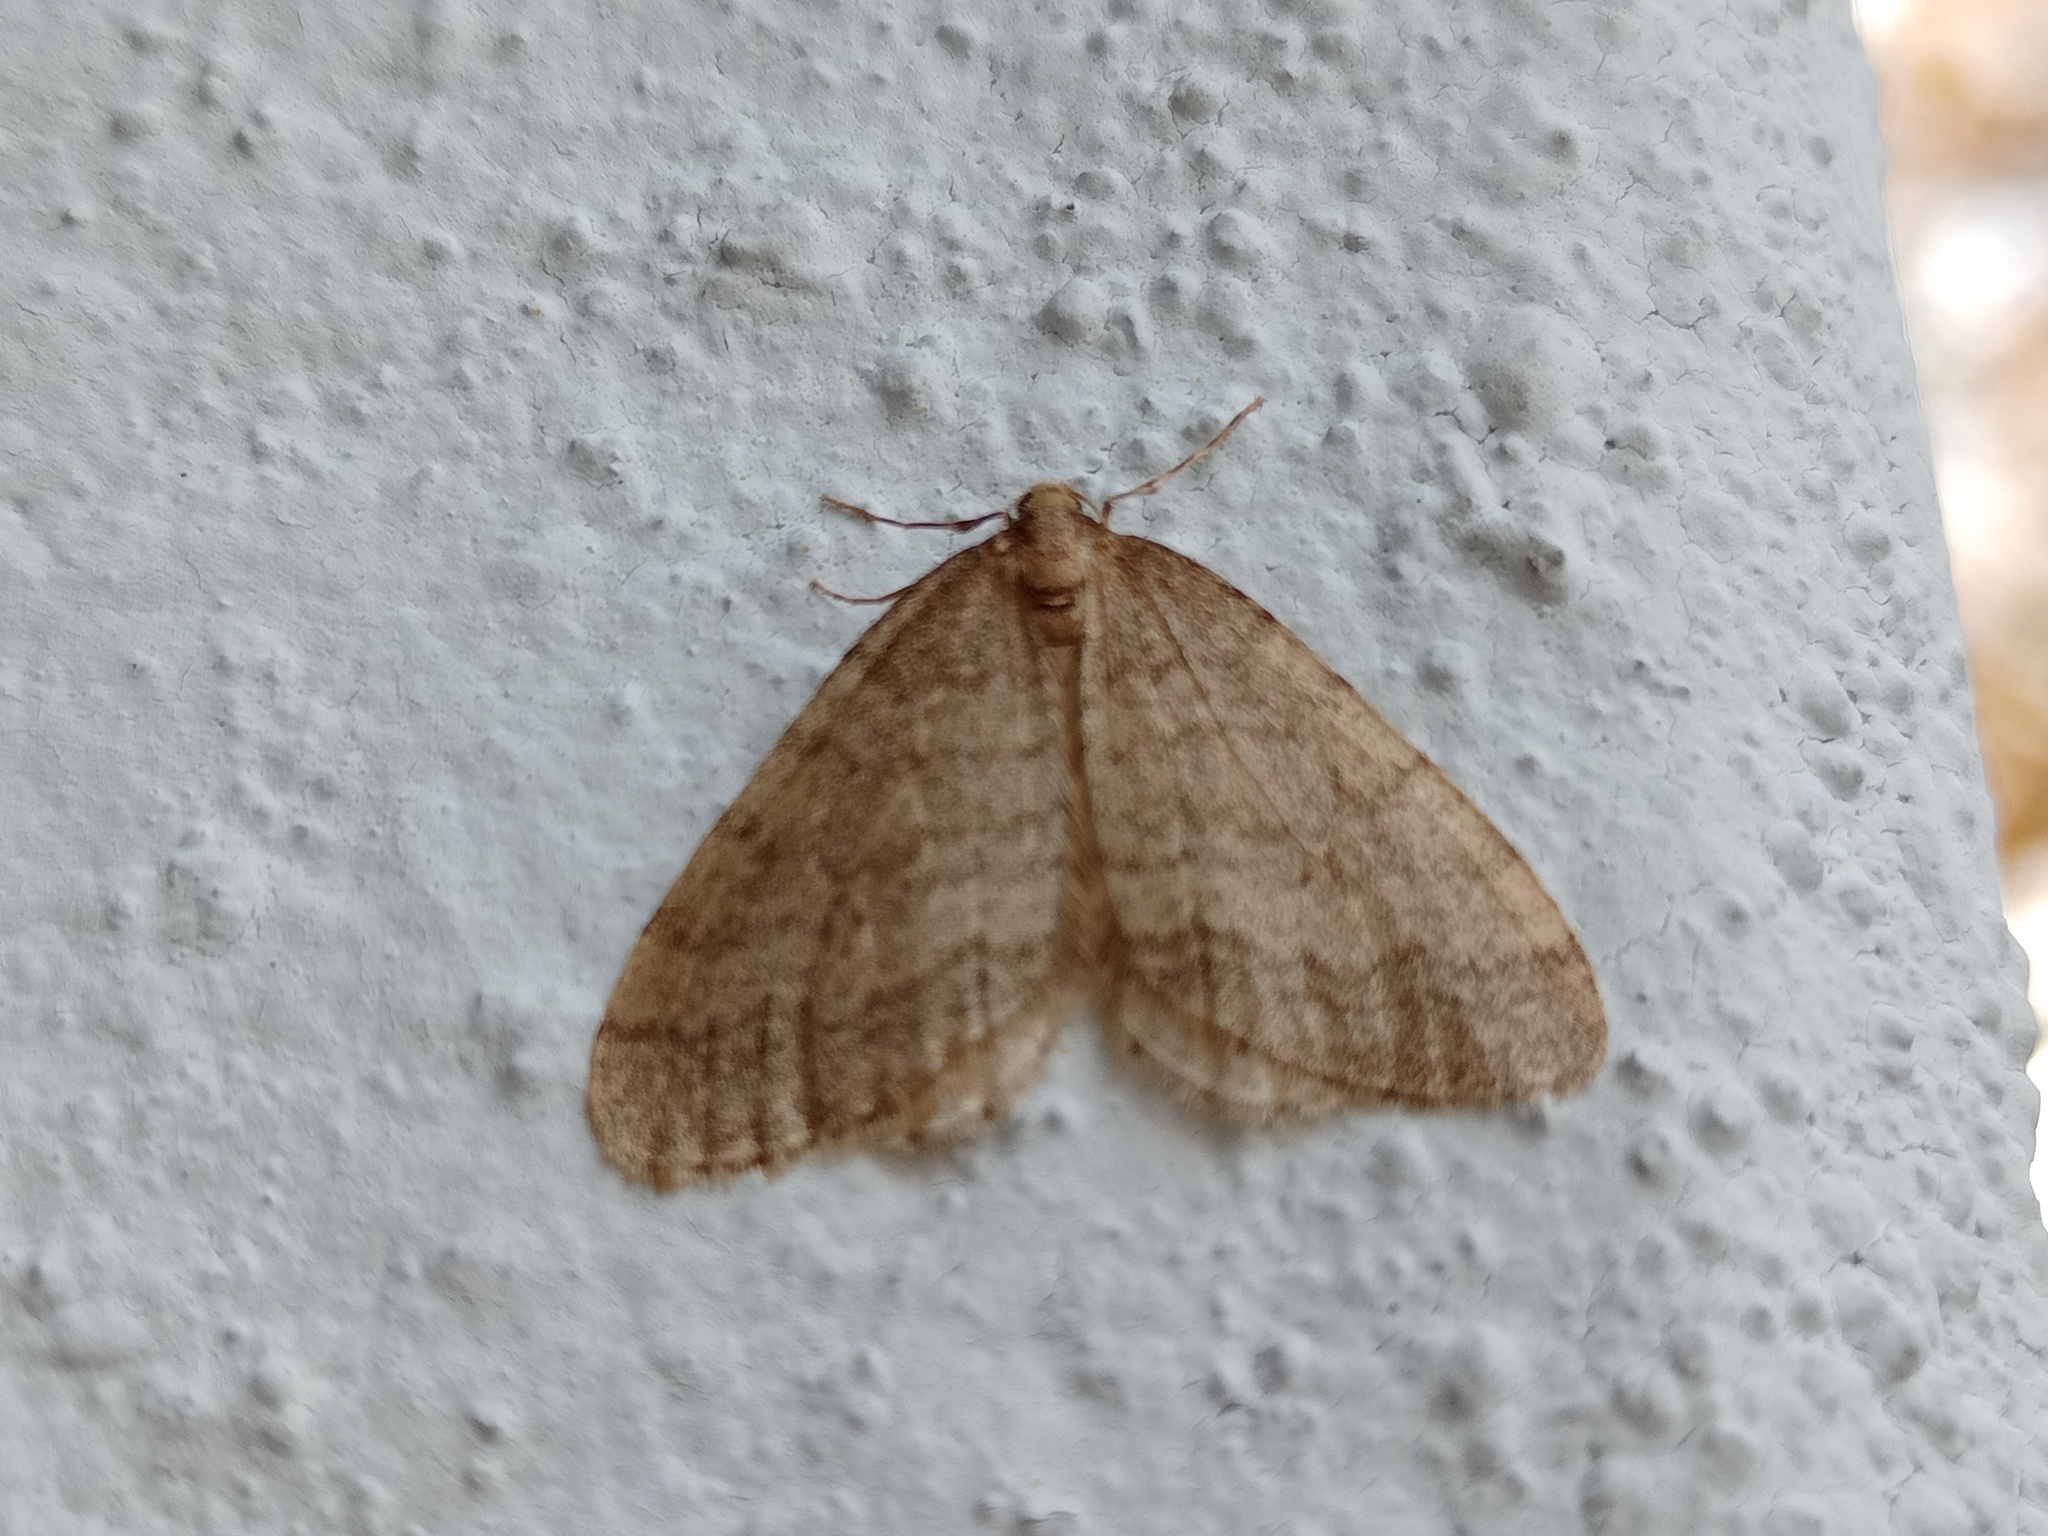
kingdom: Animalia
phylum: Arthropoda
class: Insecta
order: Lepidoptera
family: Geometridae
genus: Operophtera
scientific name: Operophtera brumata
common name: Winter moth
